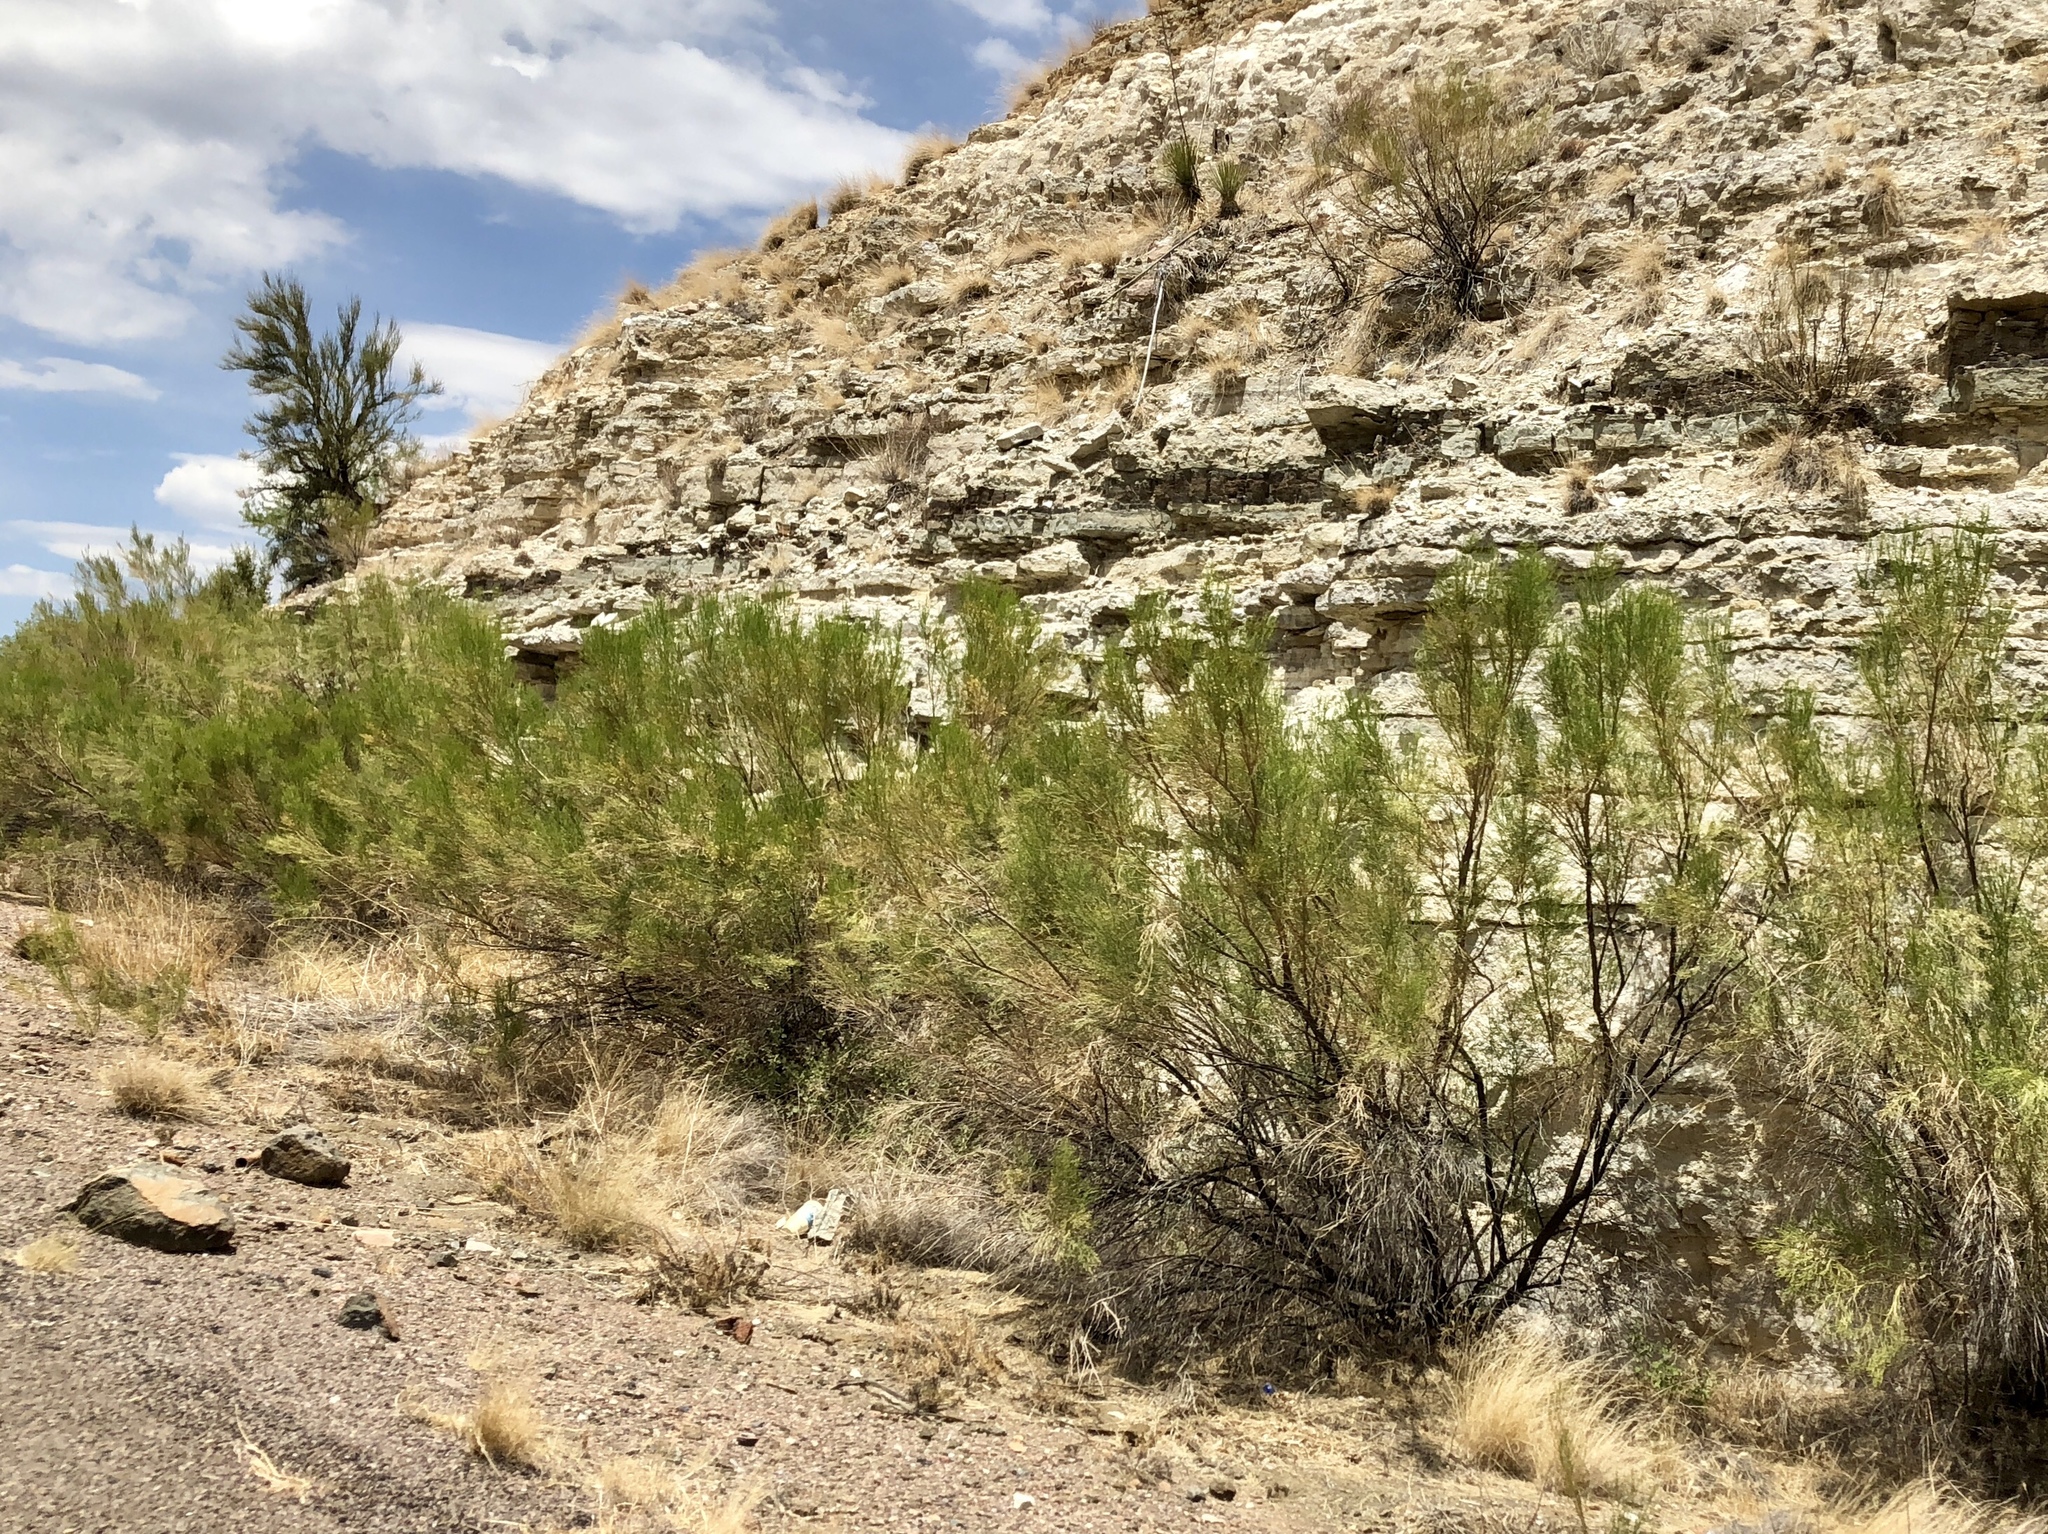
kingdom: Plantae
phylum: Tracheophyta
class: Magnoliopsida
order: Asterales
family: Asteraceae
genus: Baccharis
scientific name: Baccharis sarothroides
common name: Desert-broom
